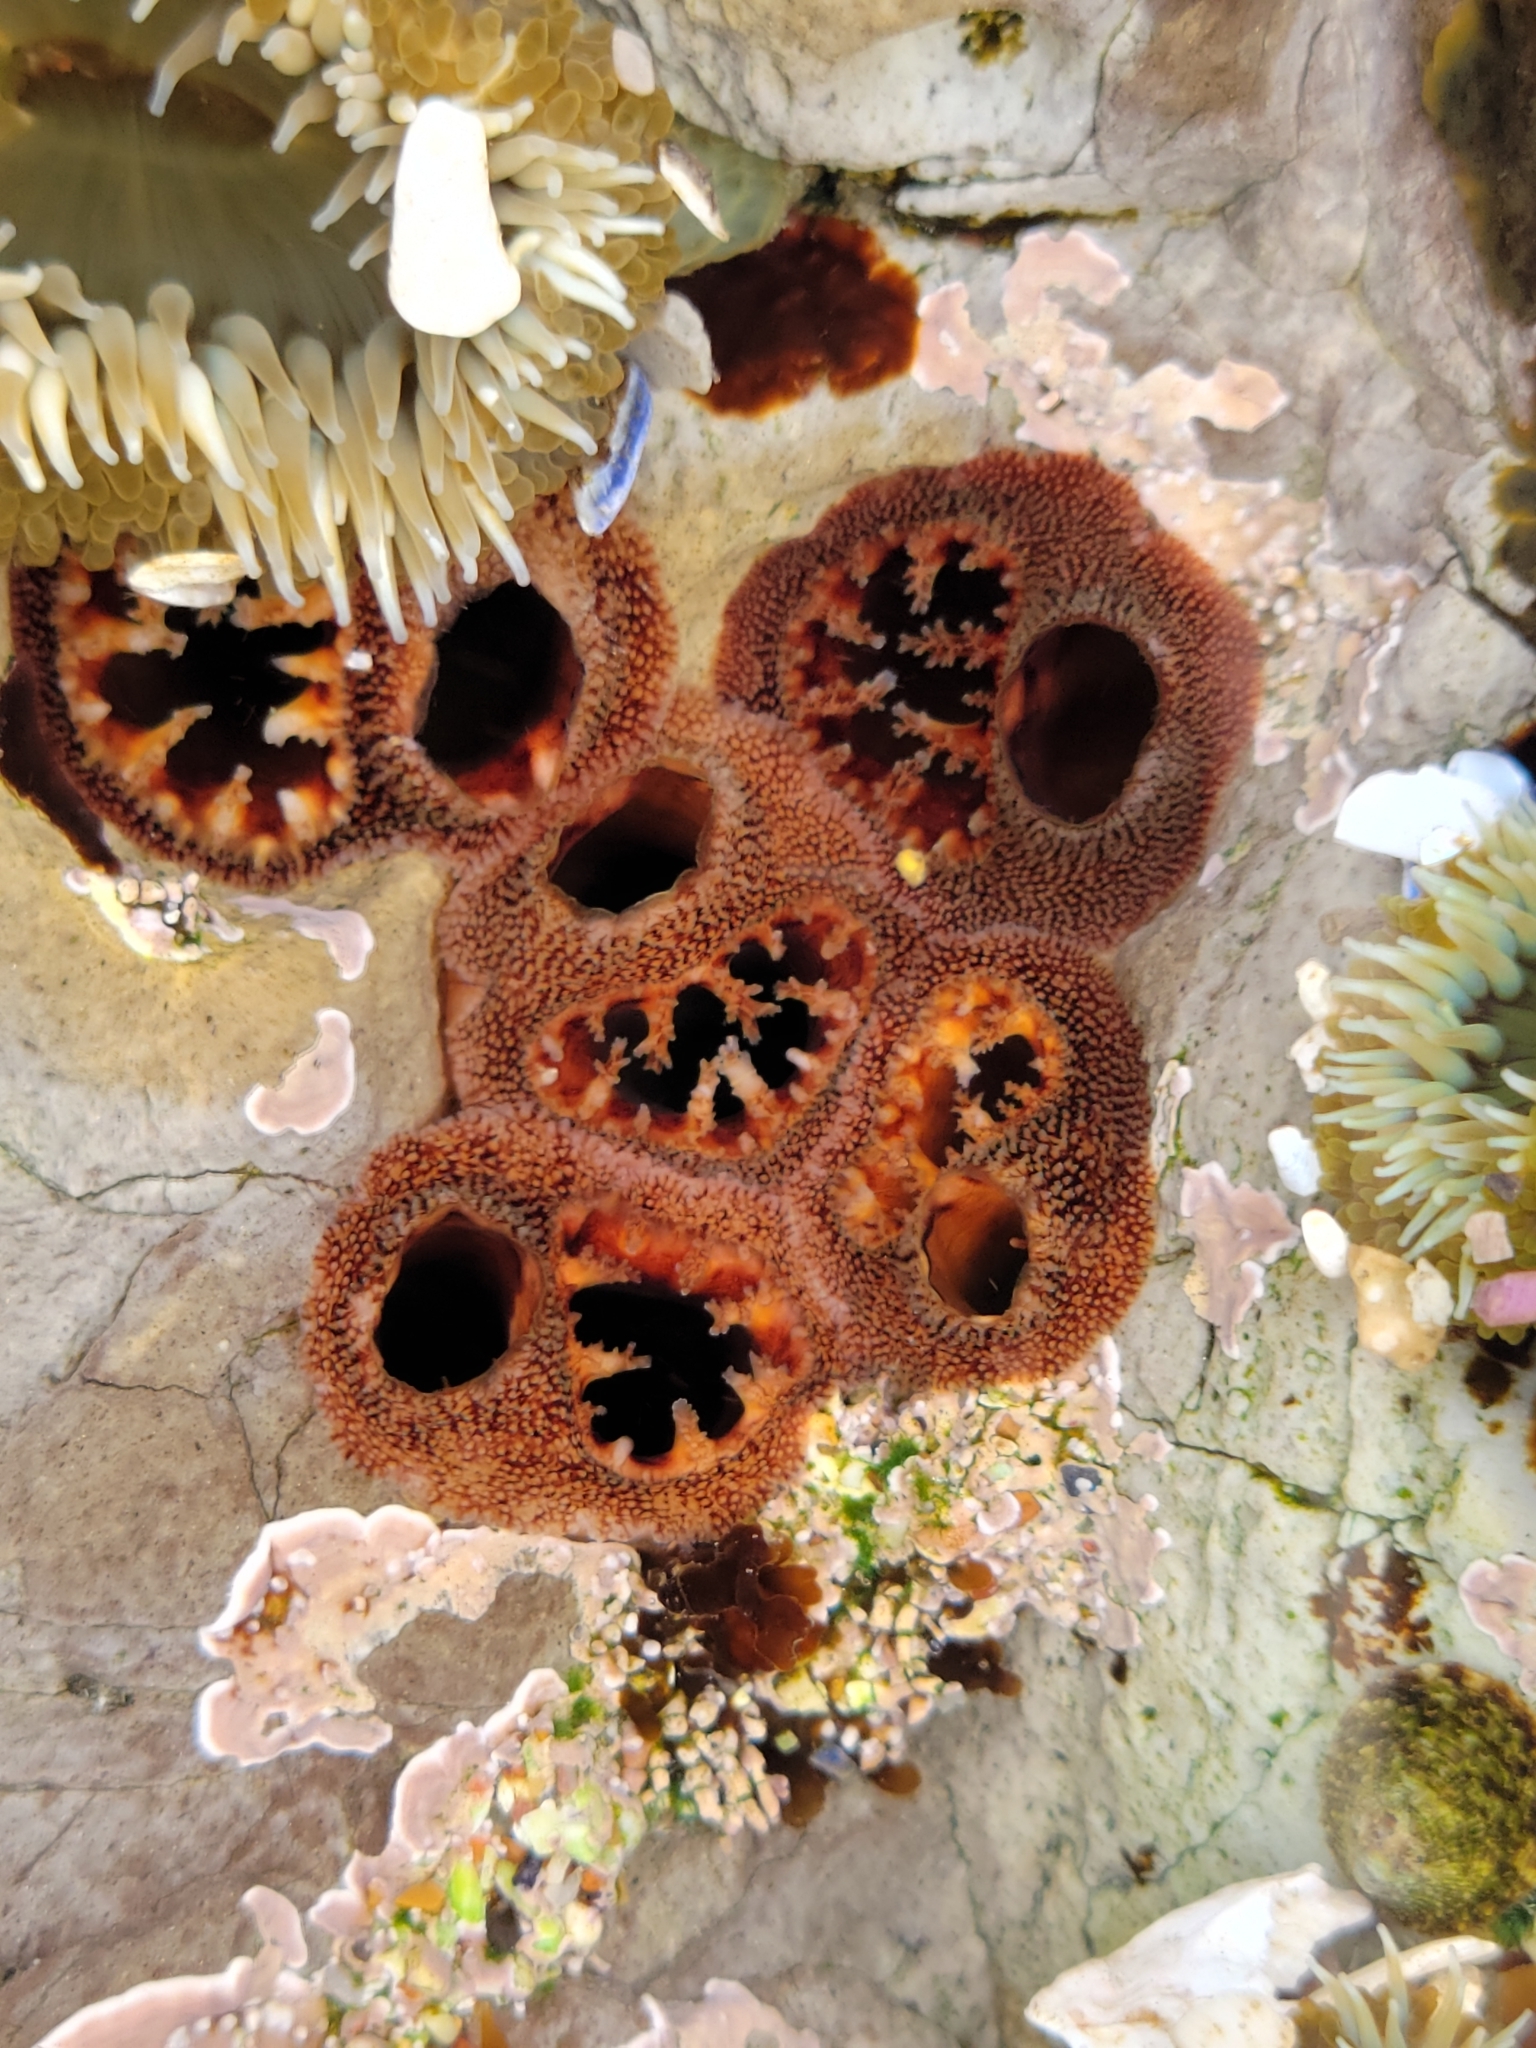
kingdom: Animalia
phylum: Mollusca
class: Bivalvia
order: Myida
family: Pholadidae
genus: Parapholas
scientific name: Parapholas californica
